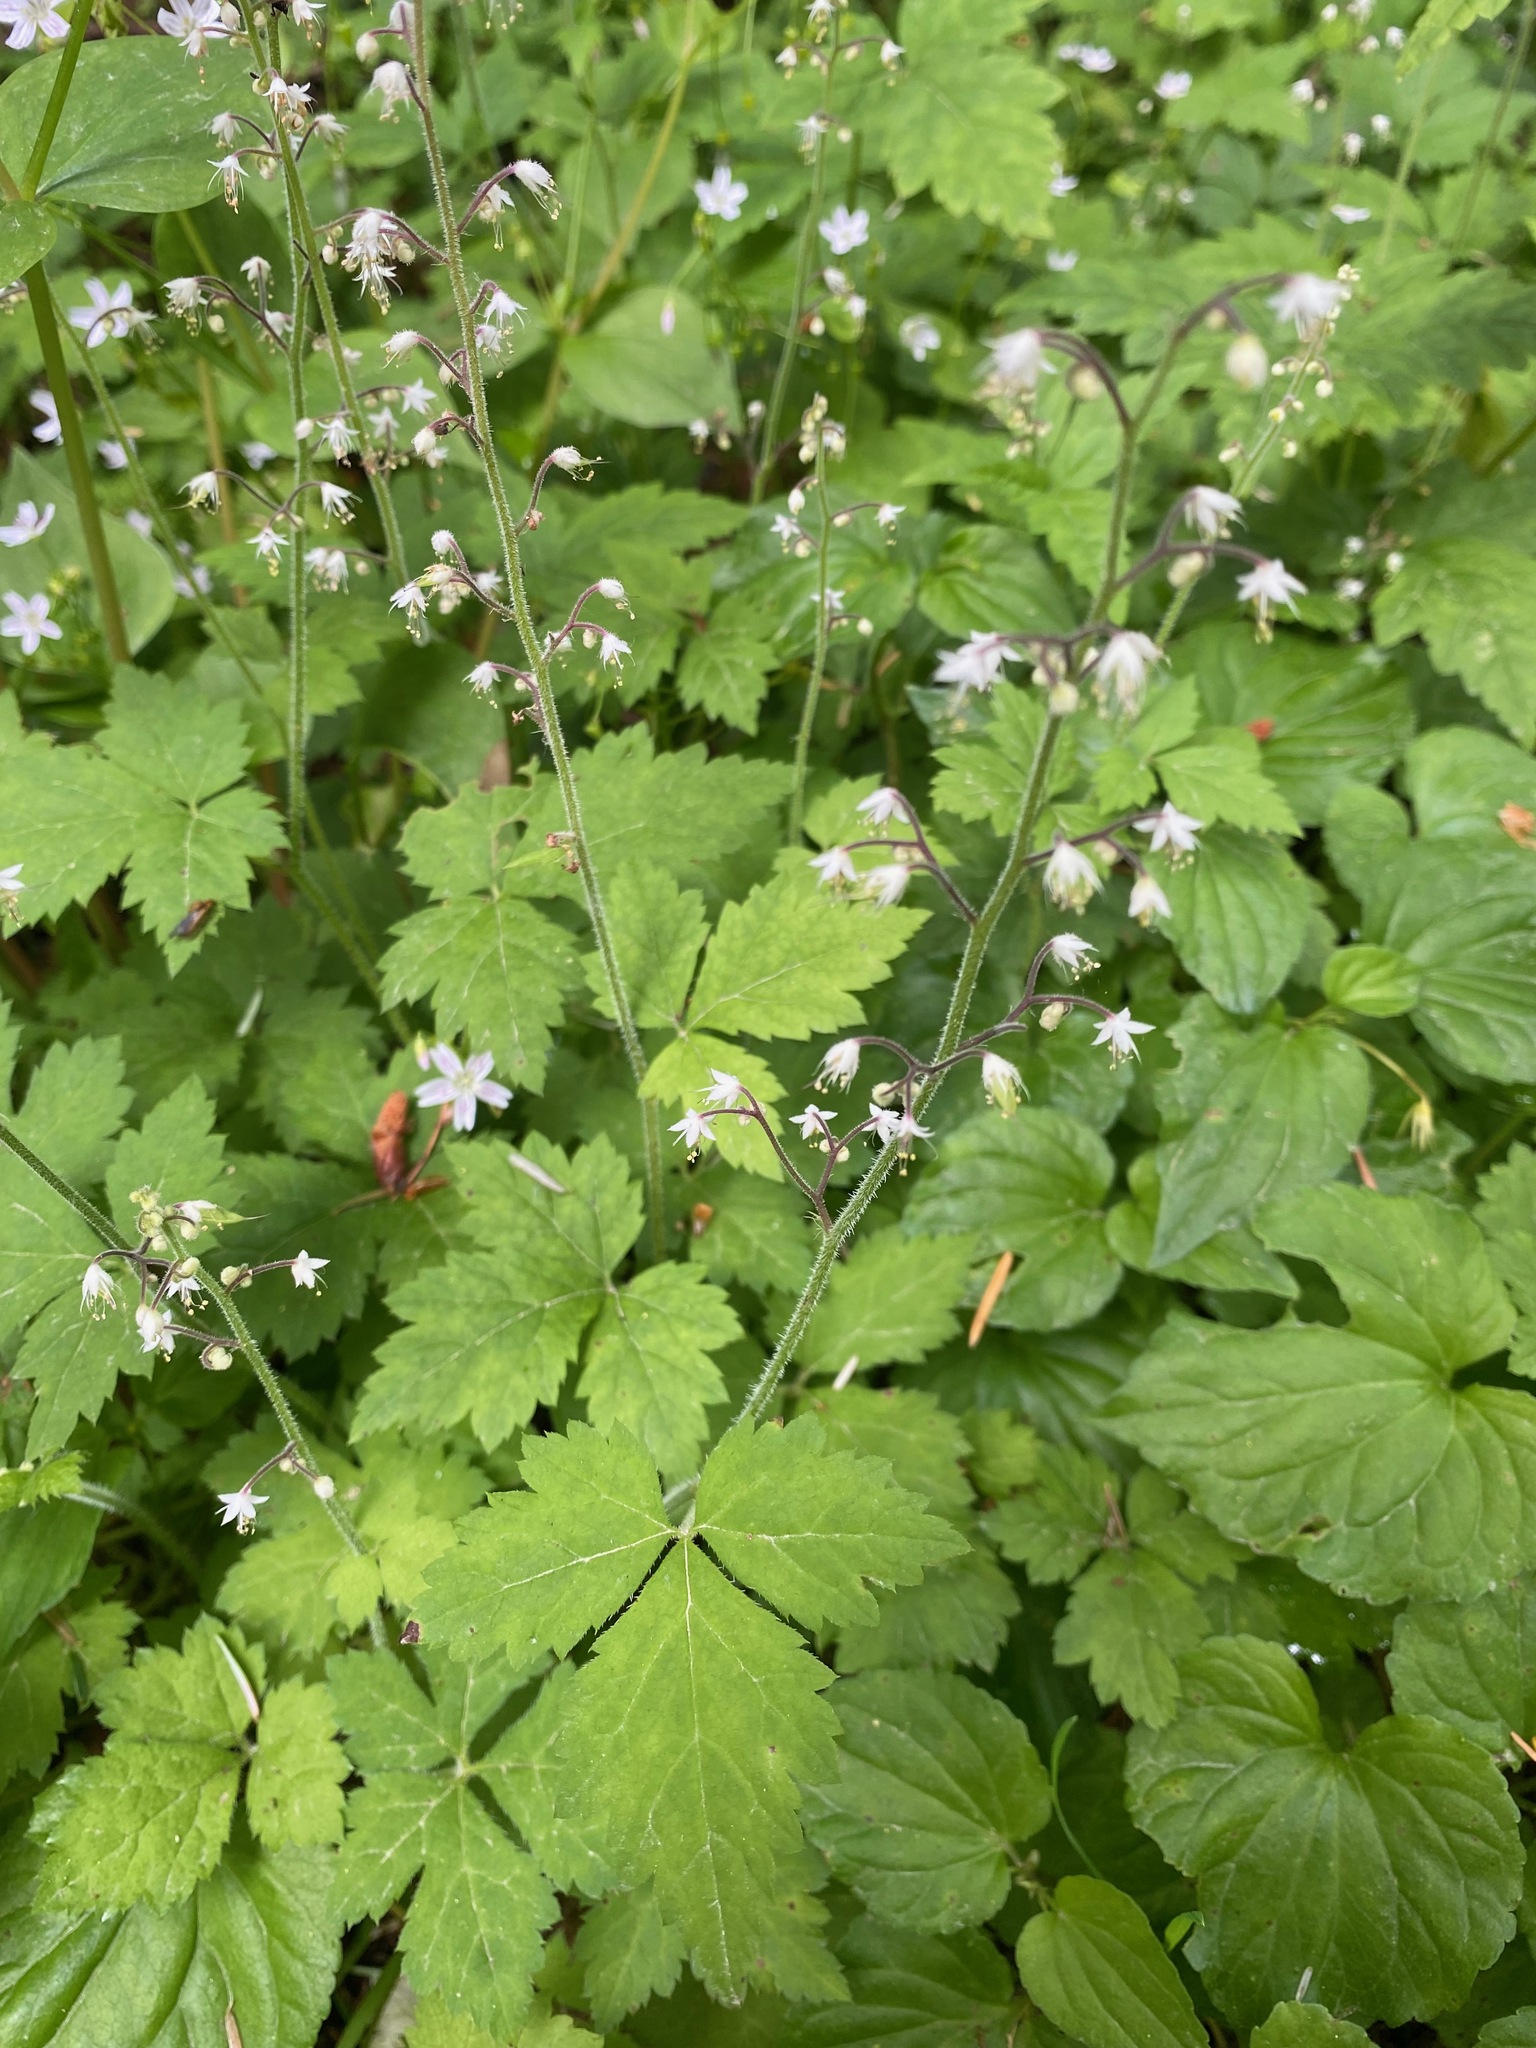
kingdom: Plantae
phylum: Tracheophyta
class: Magnoliopsida
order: Saxifragales
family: Saxifragaceae
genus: Tiarella
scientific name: Tiarella trifoliata
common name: Sugar-scoop
